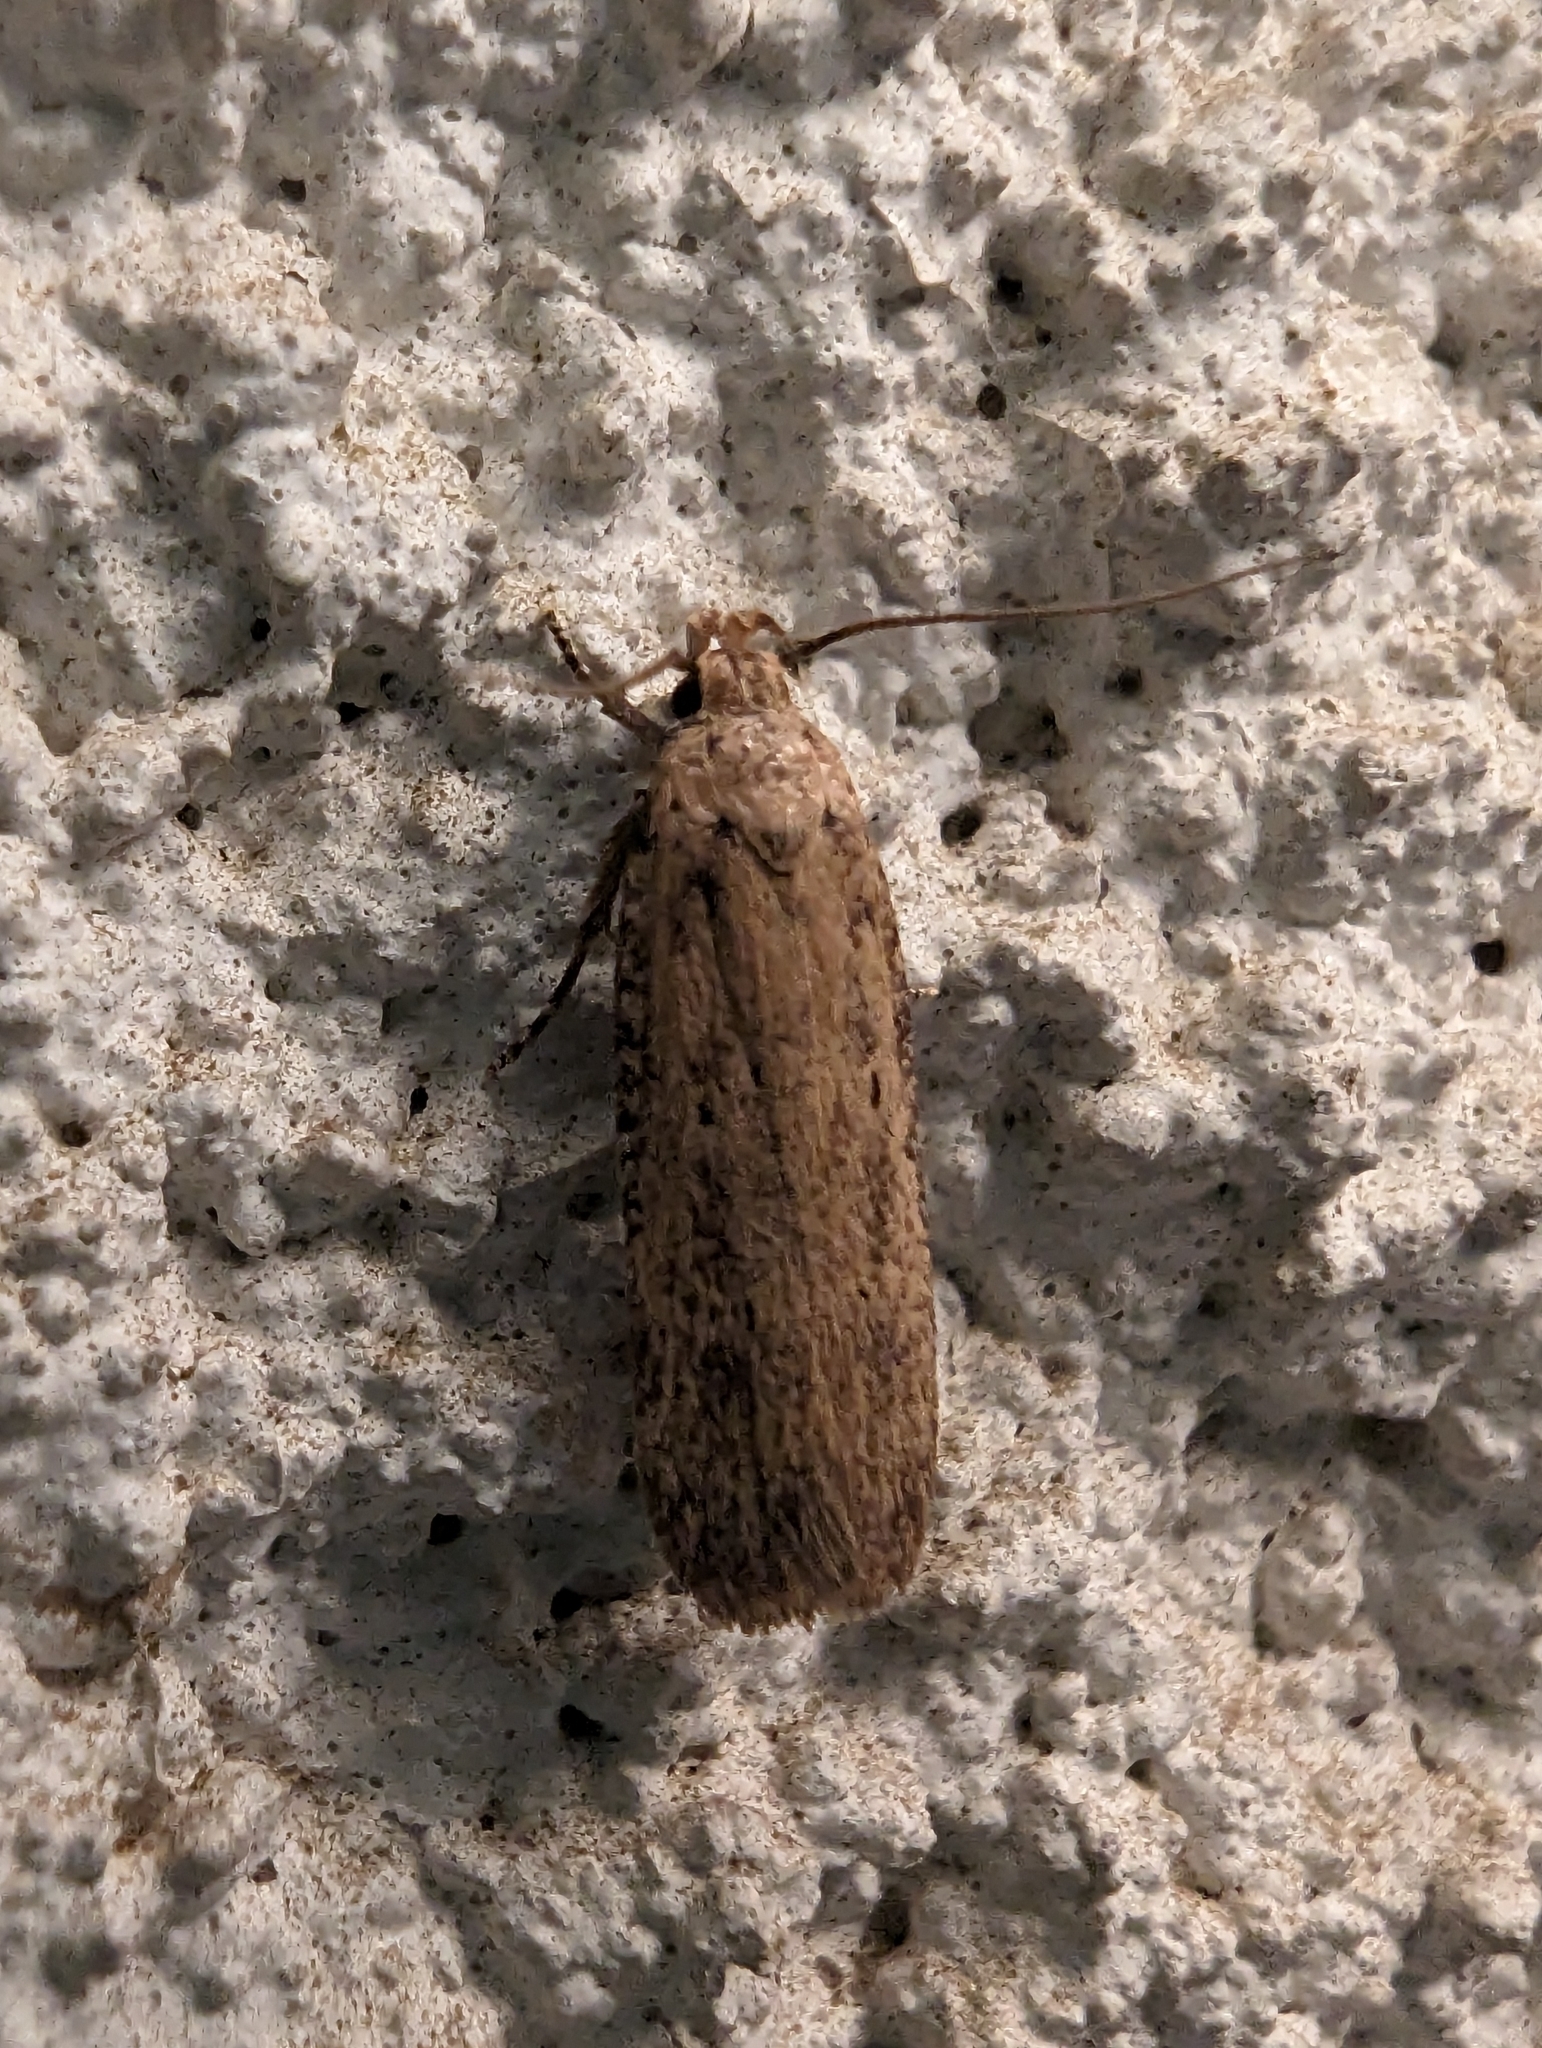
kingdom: Animalia
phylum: Arthropoda
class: Insecta
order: Lepidoptera
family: Gelechiidae
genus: Platyedra
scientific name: Platyedra subcinerea
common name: Moth
